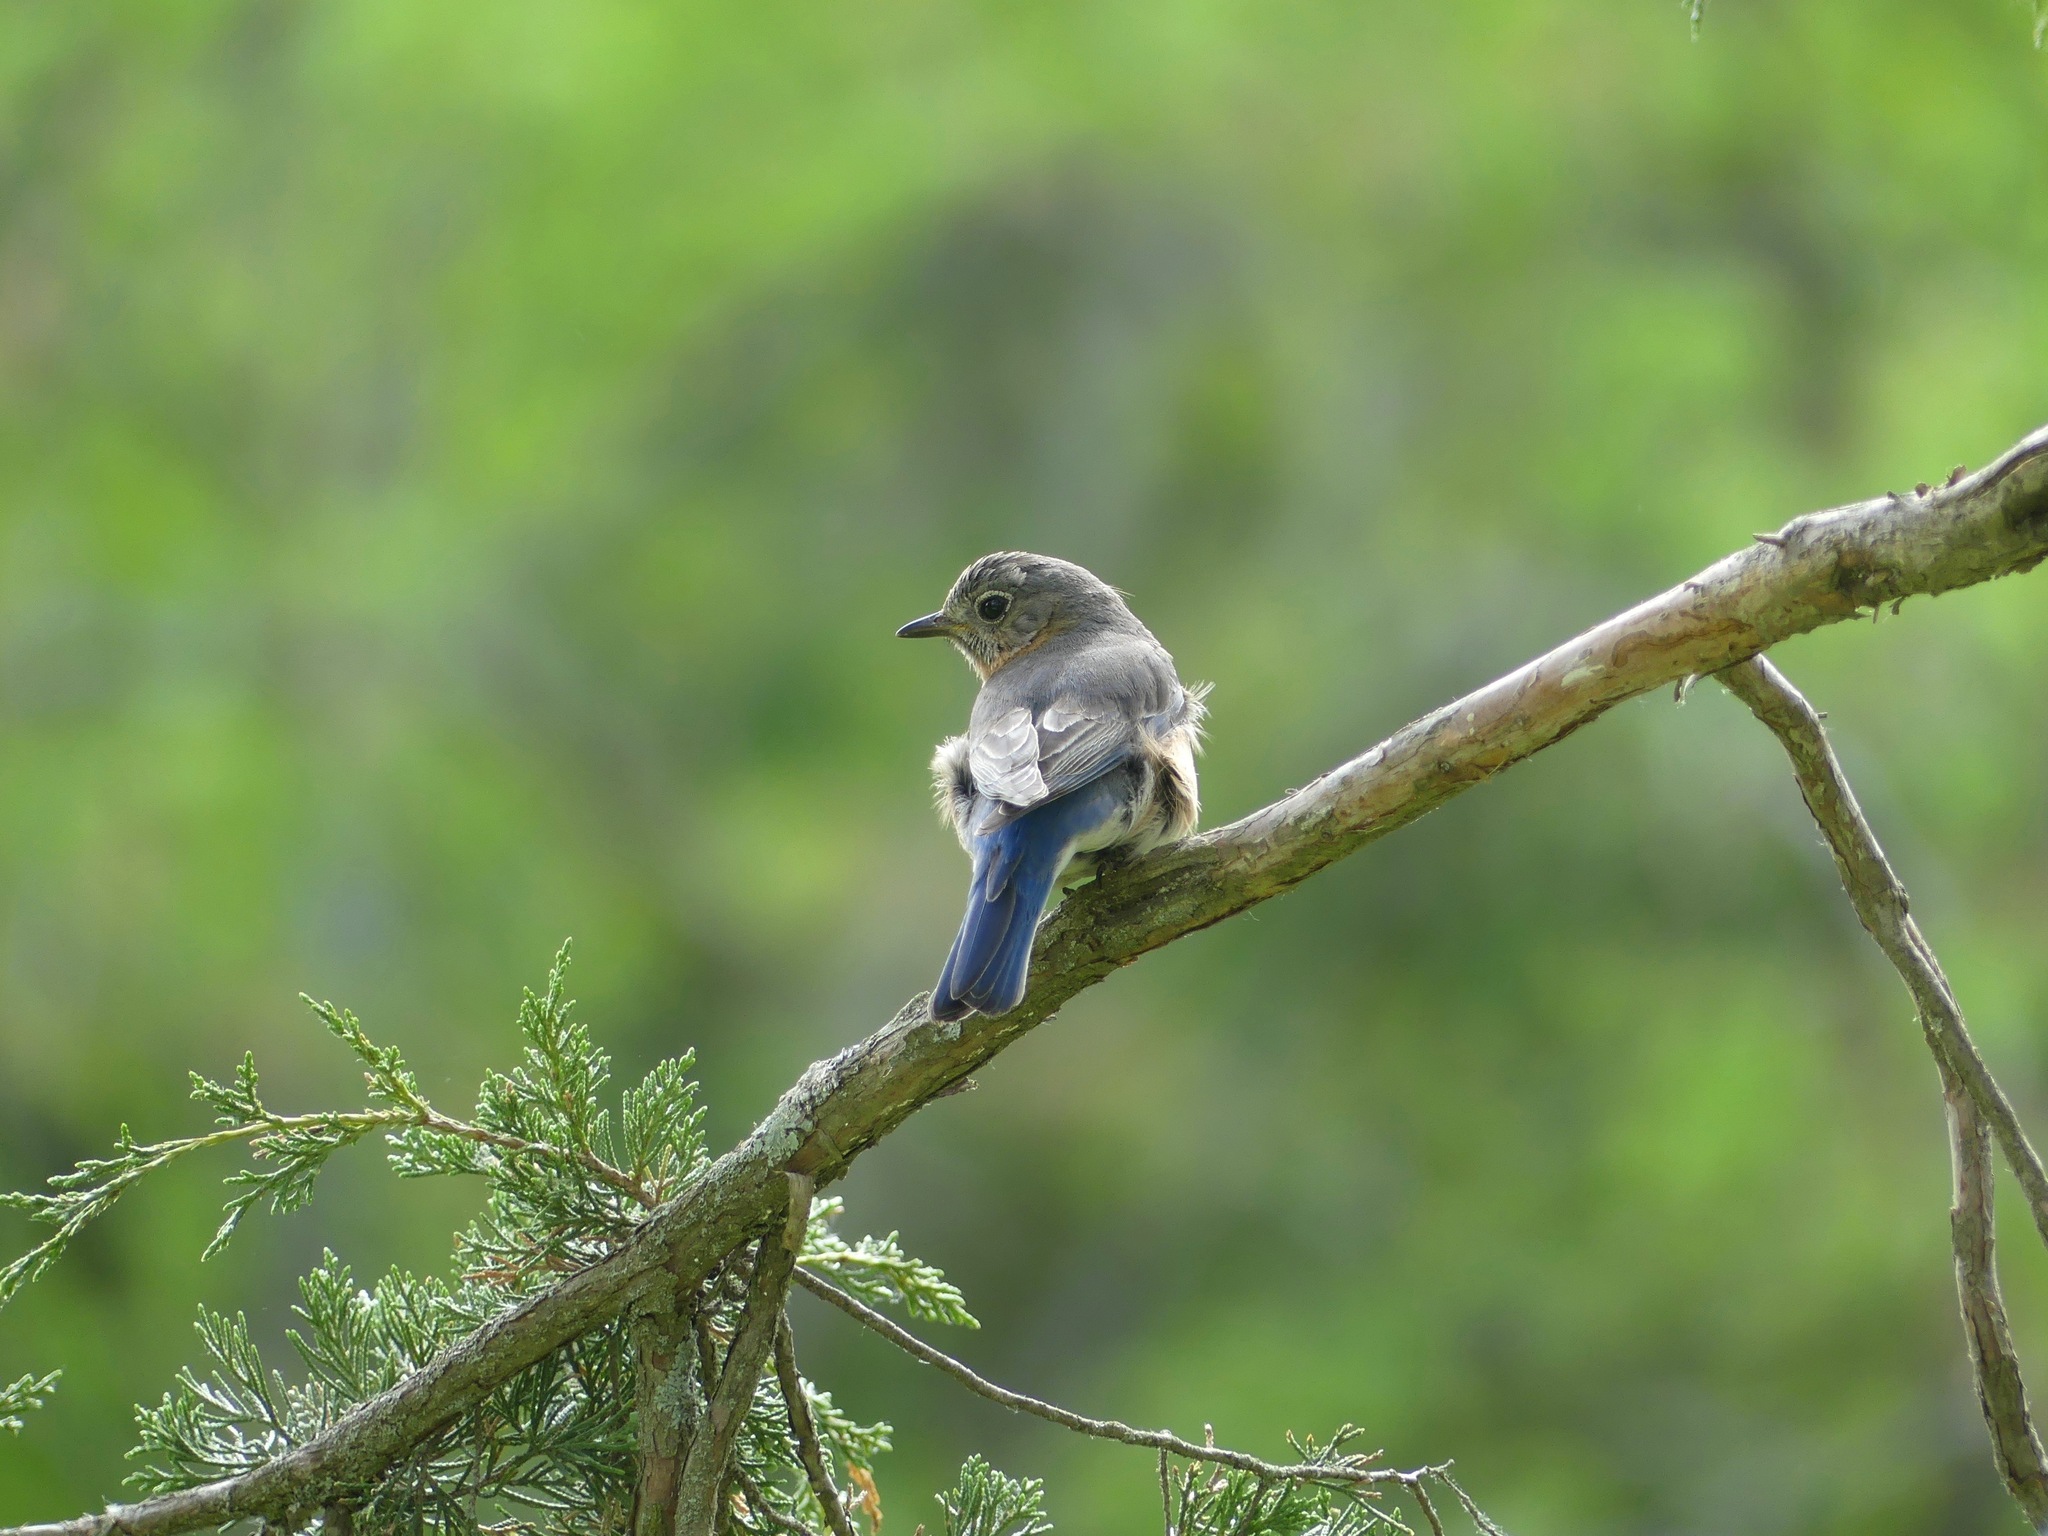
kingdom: Animalia
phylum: Chordata
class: Aves
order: Passeriformes
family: Turdidae
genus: Sialia
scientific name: Sialia sialis
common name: Eastern bluebird
